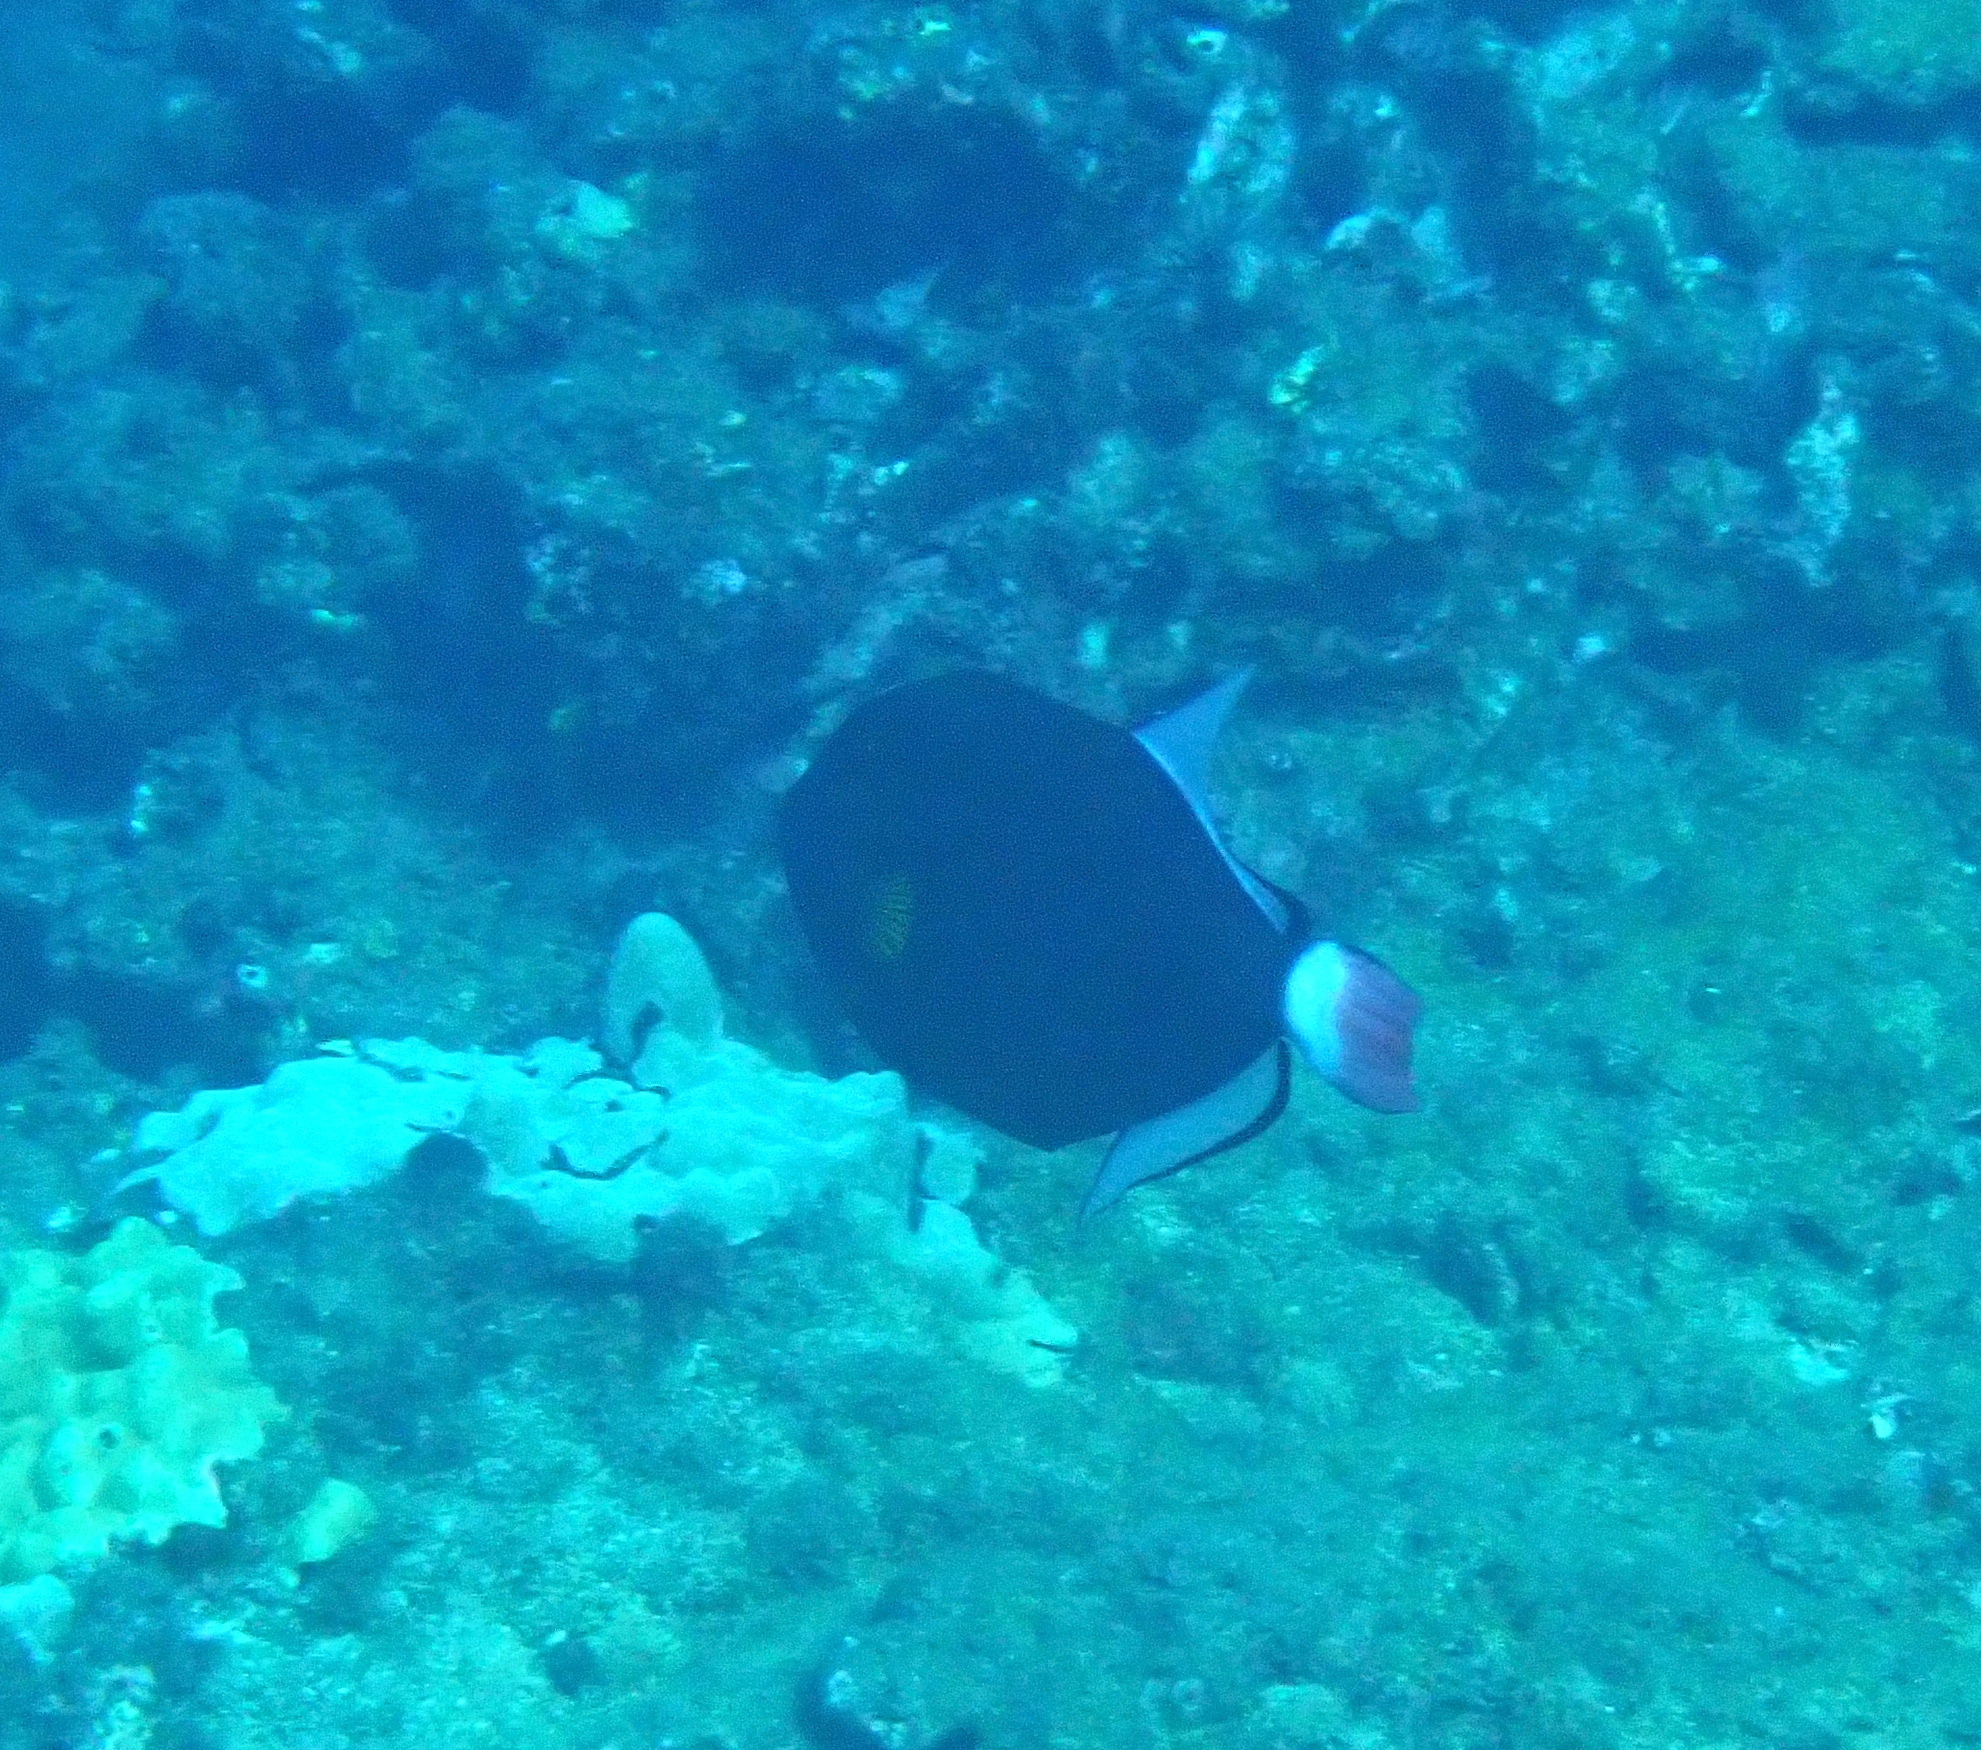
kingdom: Animalia
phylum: Chordata
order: Tetraodontiformes
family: Balistidae
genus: Melichthys
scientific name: Melichthys vidua
